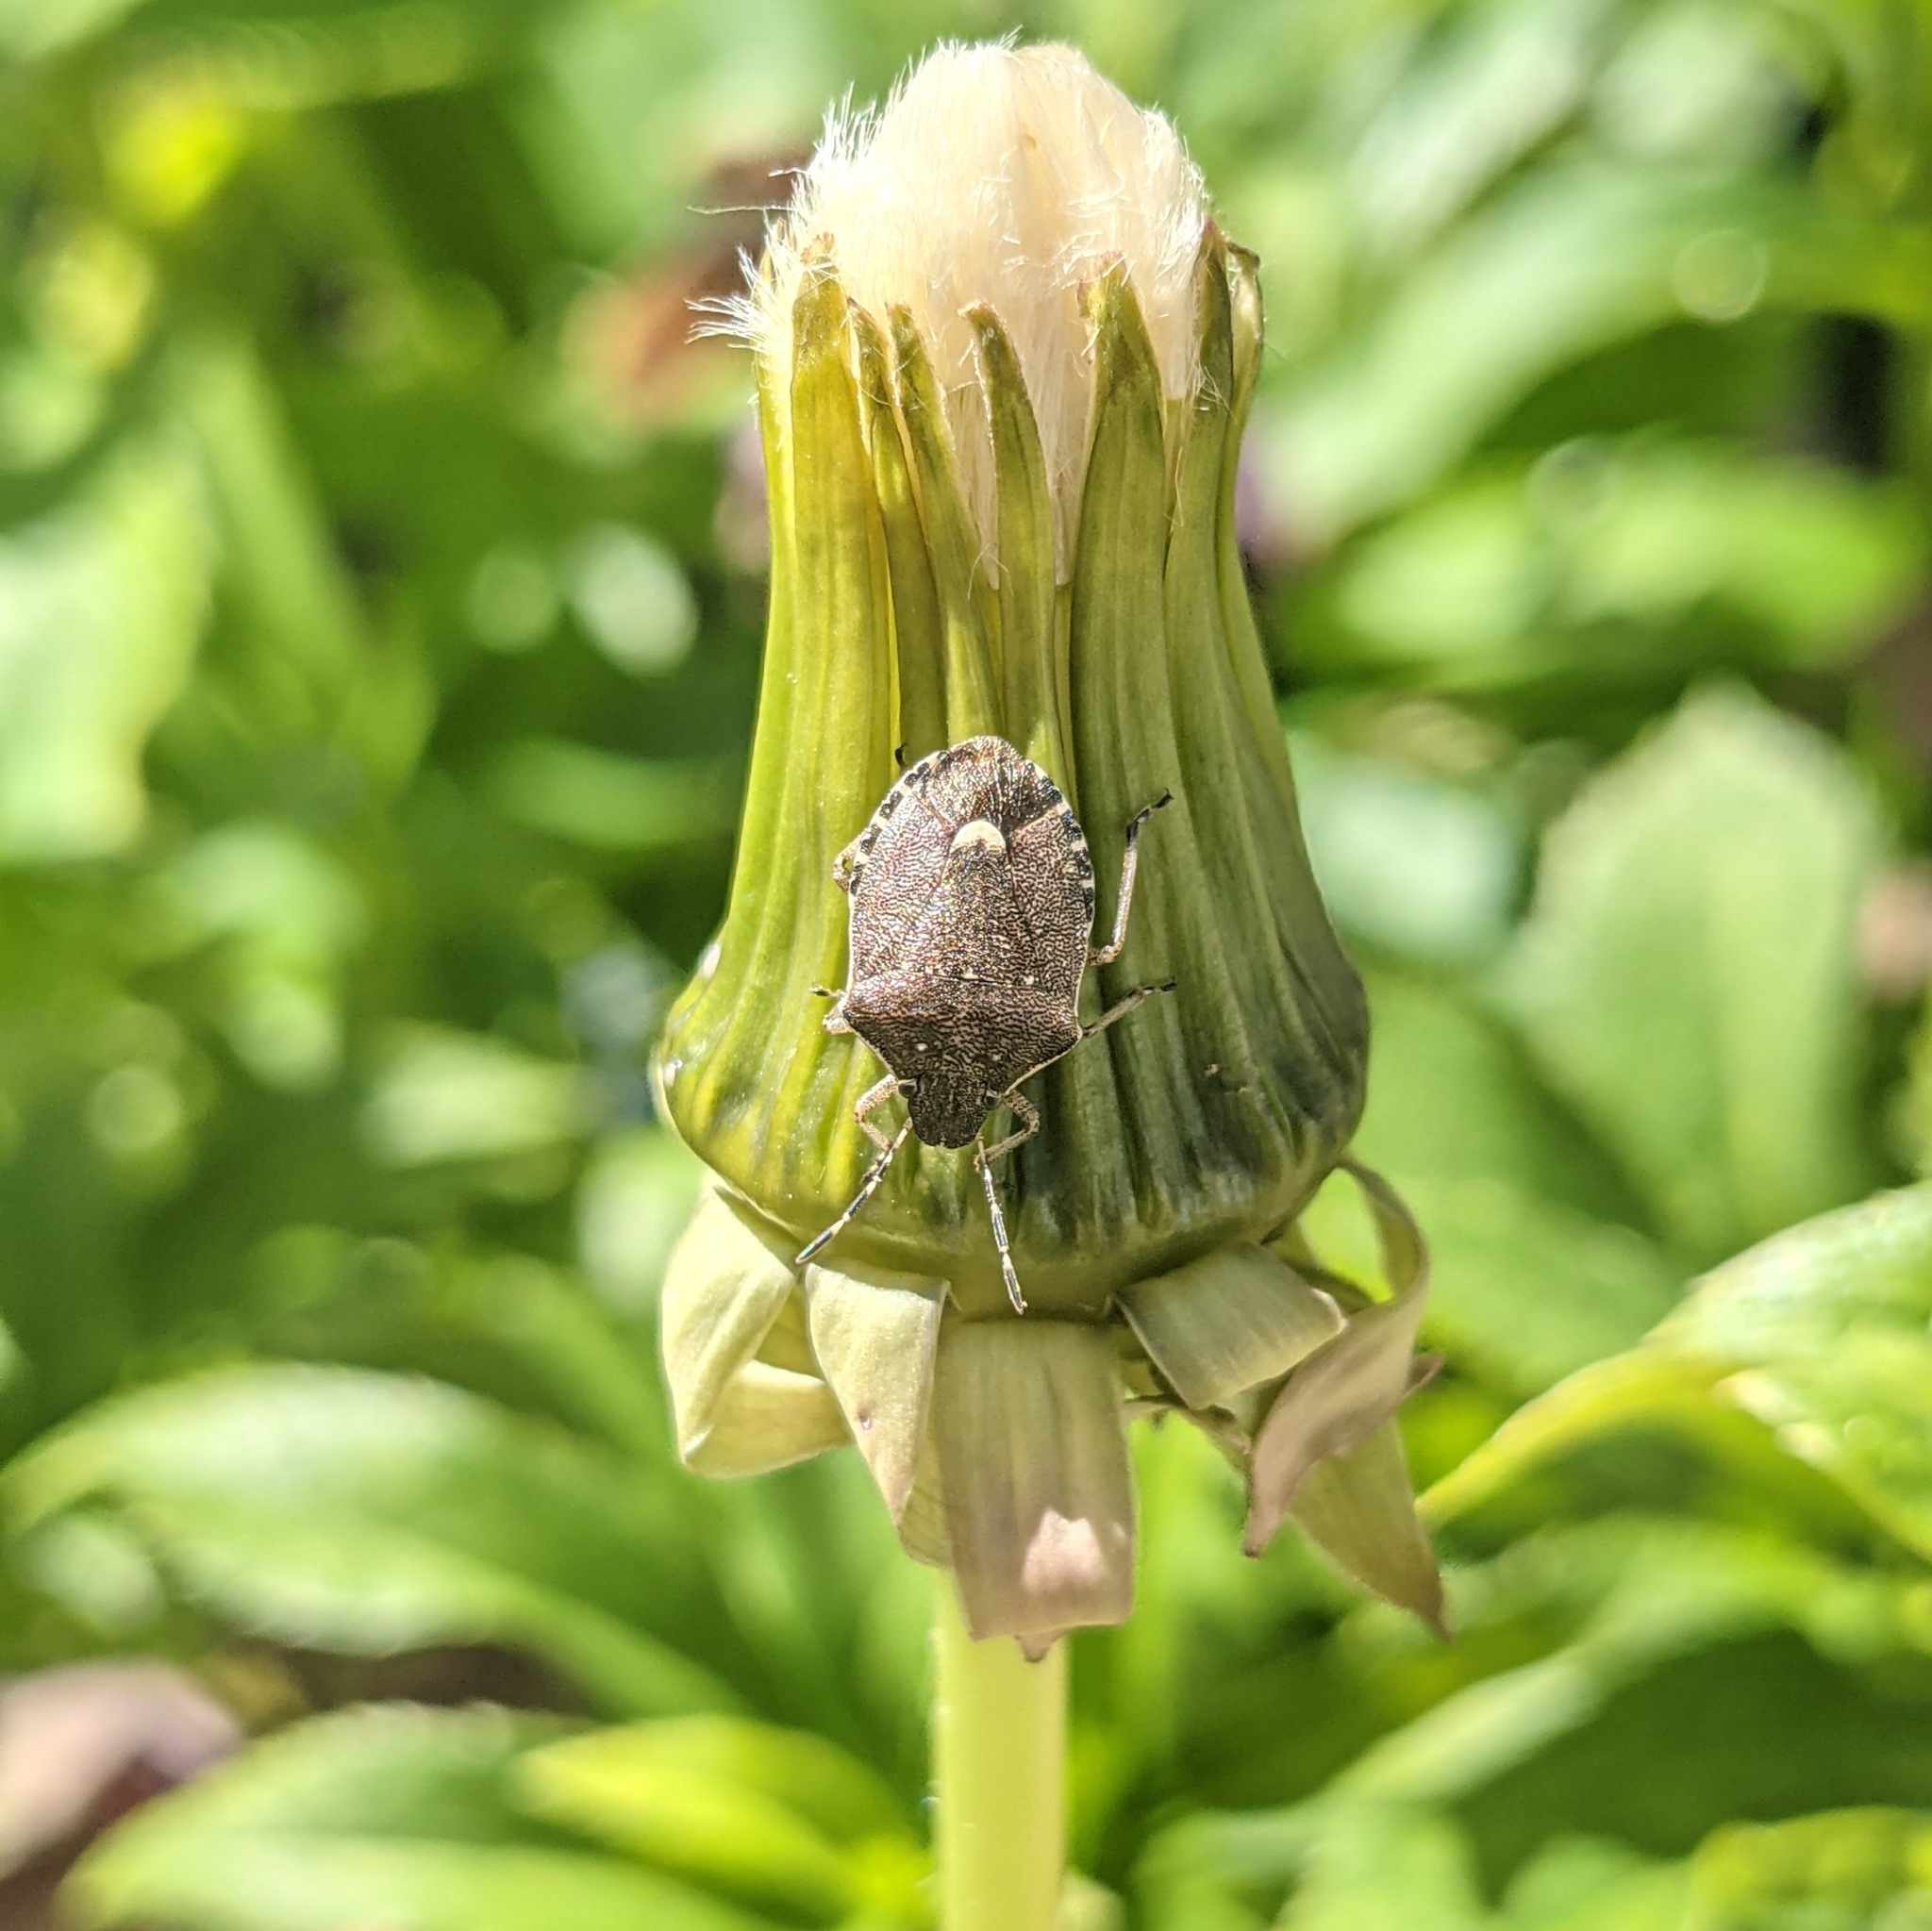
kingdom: Animalia
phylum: Arthropoda
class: Insecta
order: Hemiptera
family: Pentatomidae
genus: Holcostethus
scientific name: Holcostethus sphacelatus
